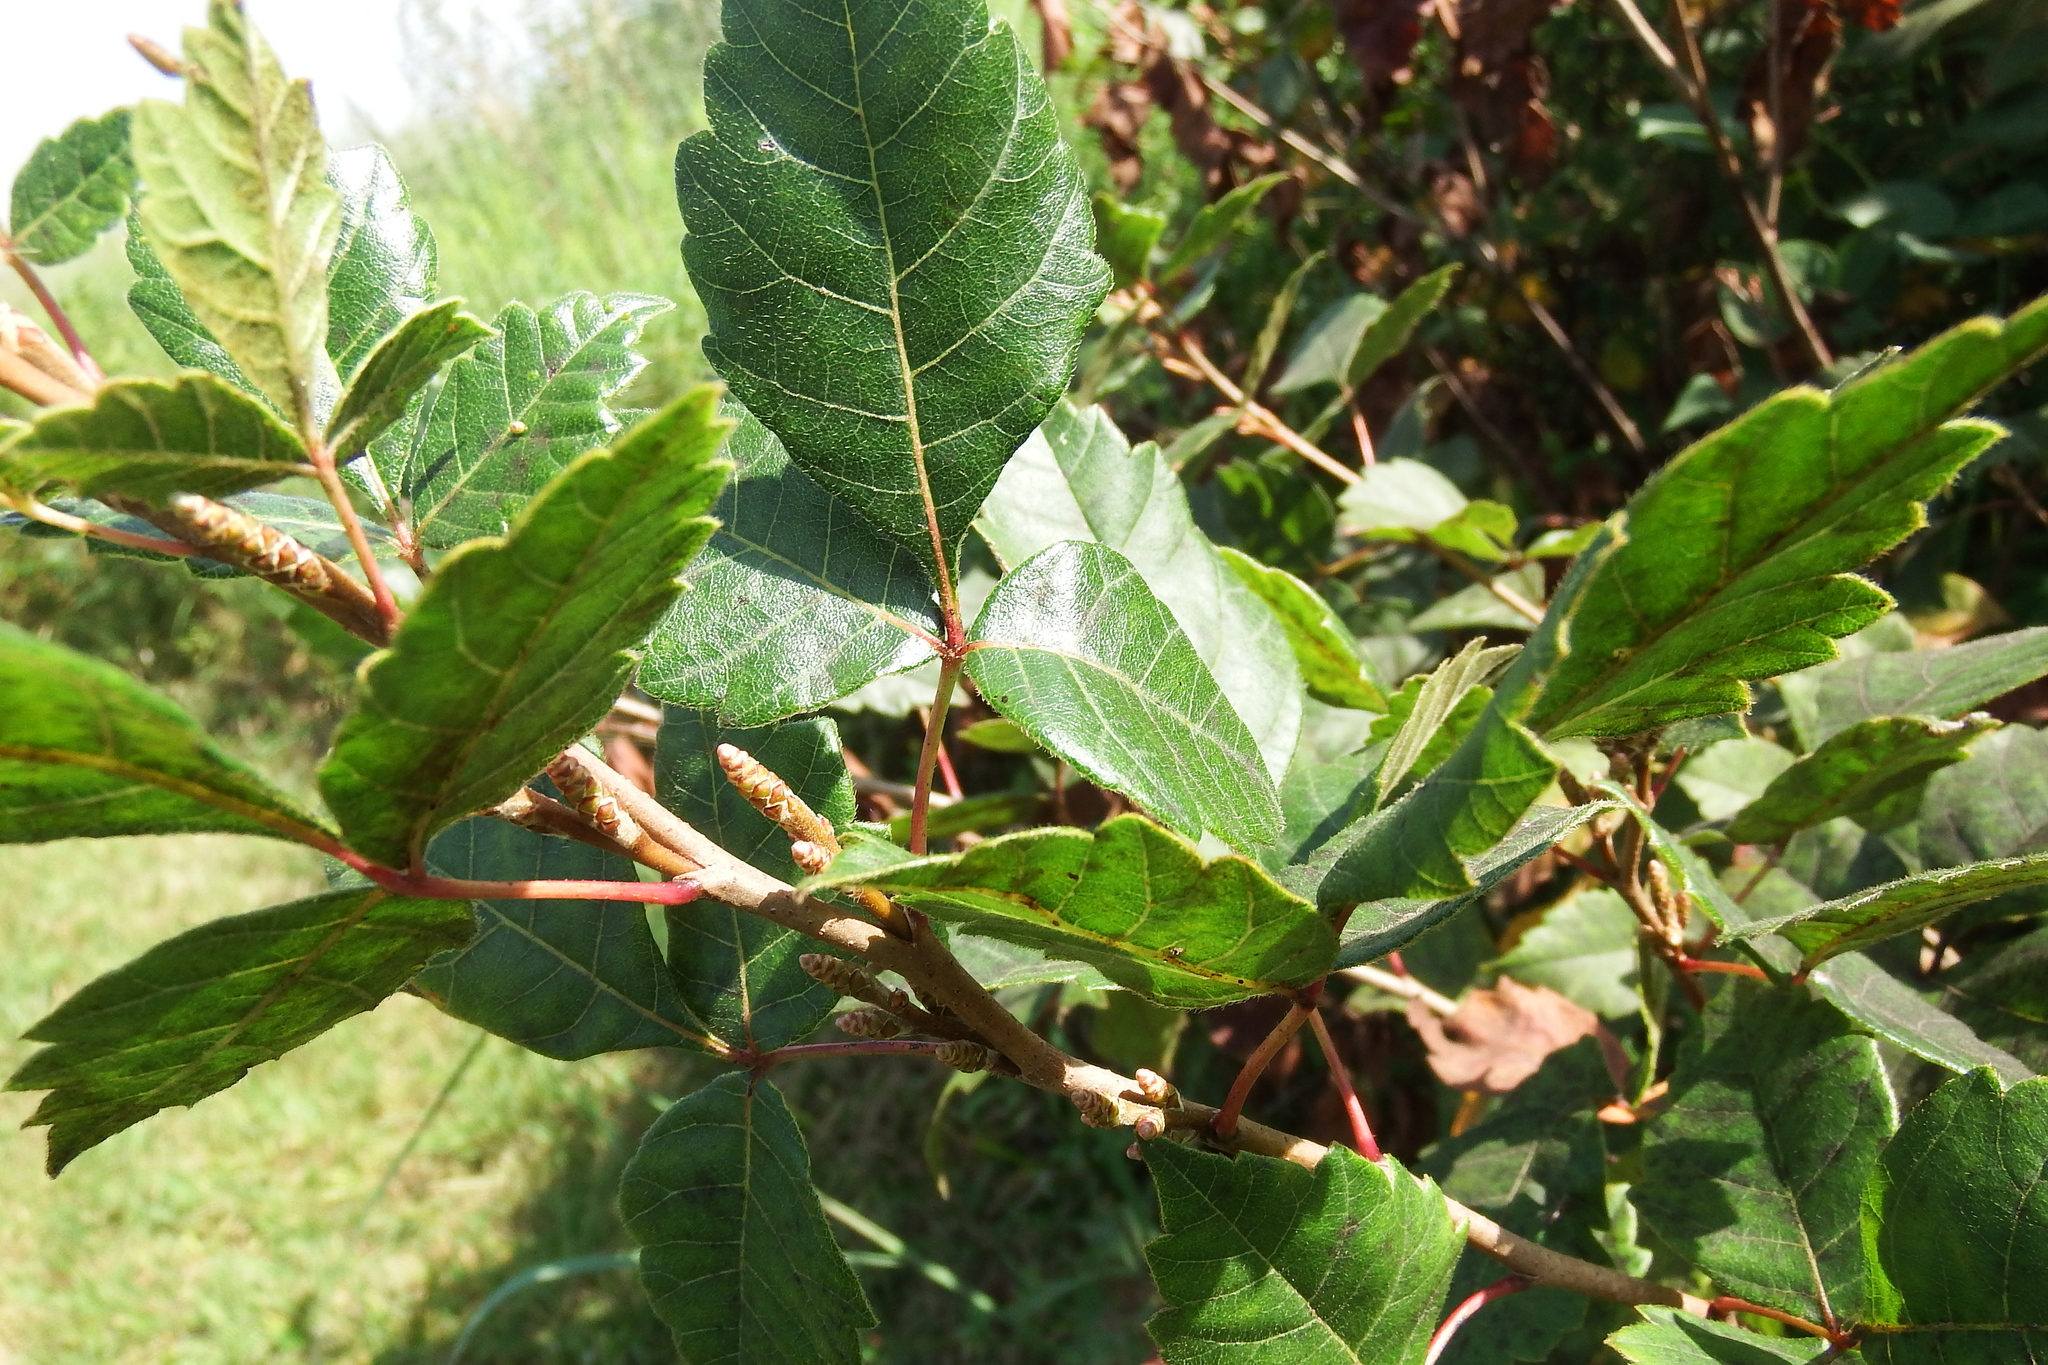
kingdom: Plantae
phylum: Tracheophyta
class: Magnoliopsida
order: Sapindales
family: Anacardiaceae
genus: Rhus
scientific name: Rhus aromatica
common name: Aromatic sumac
